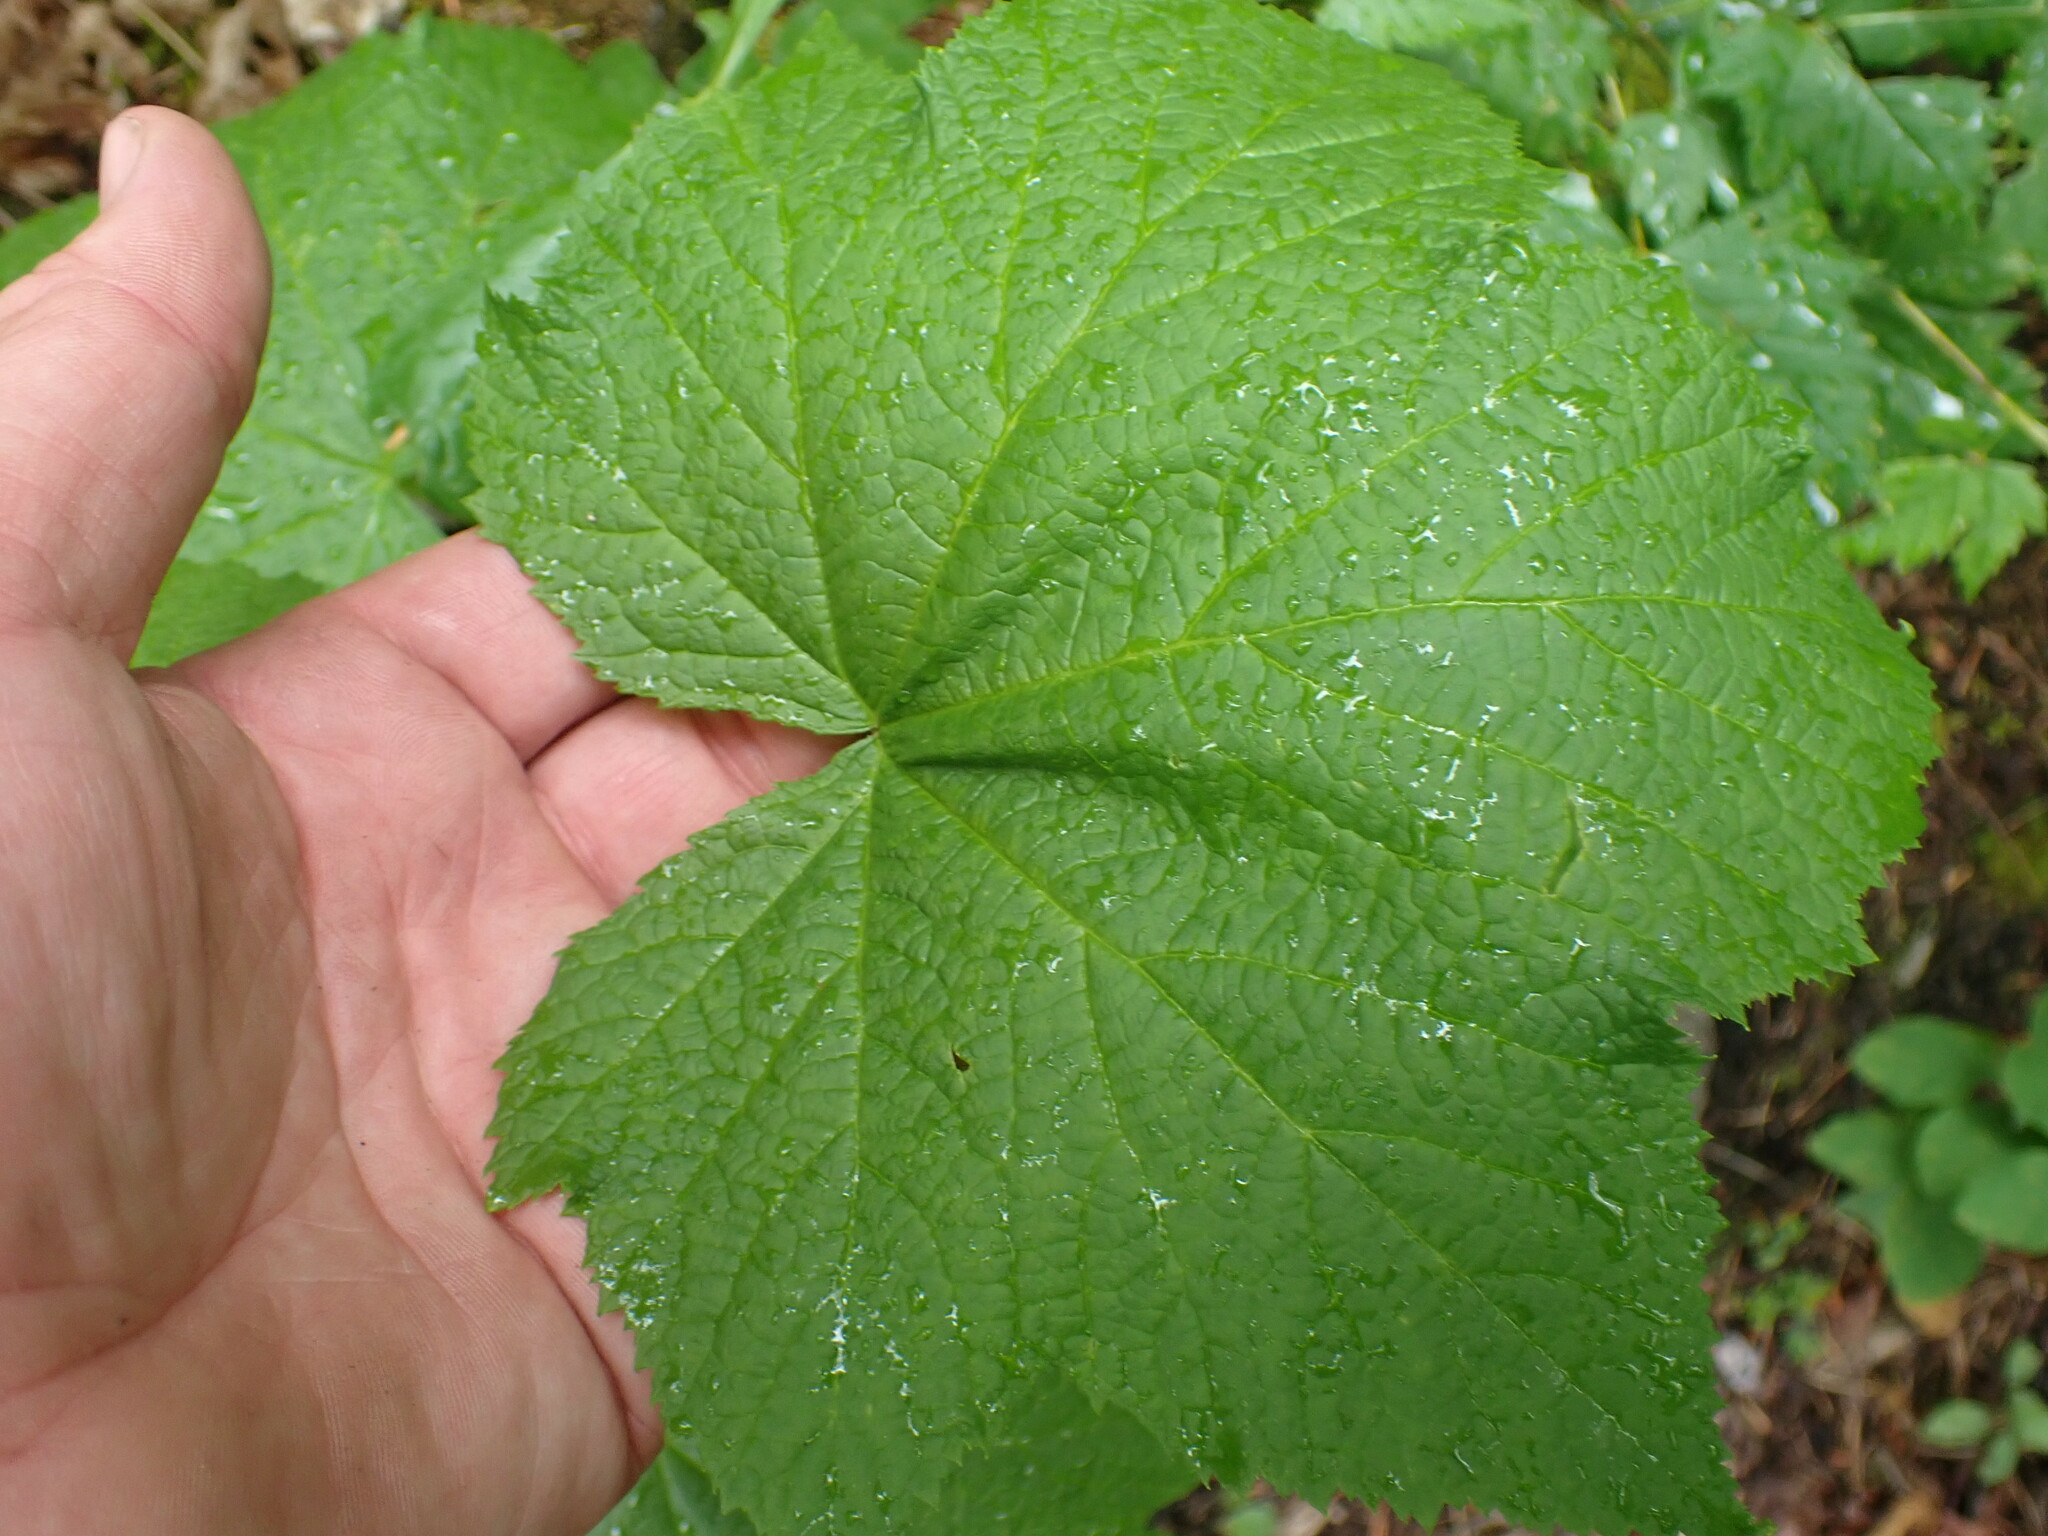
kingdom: Plantae
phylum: Tracheophyta
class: Magnoliopsida
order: Rosales
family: Rosaceae
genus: Rubus
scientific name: Rubus parviflorus
